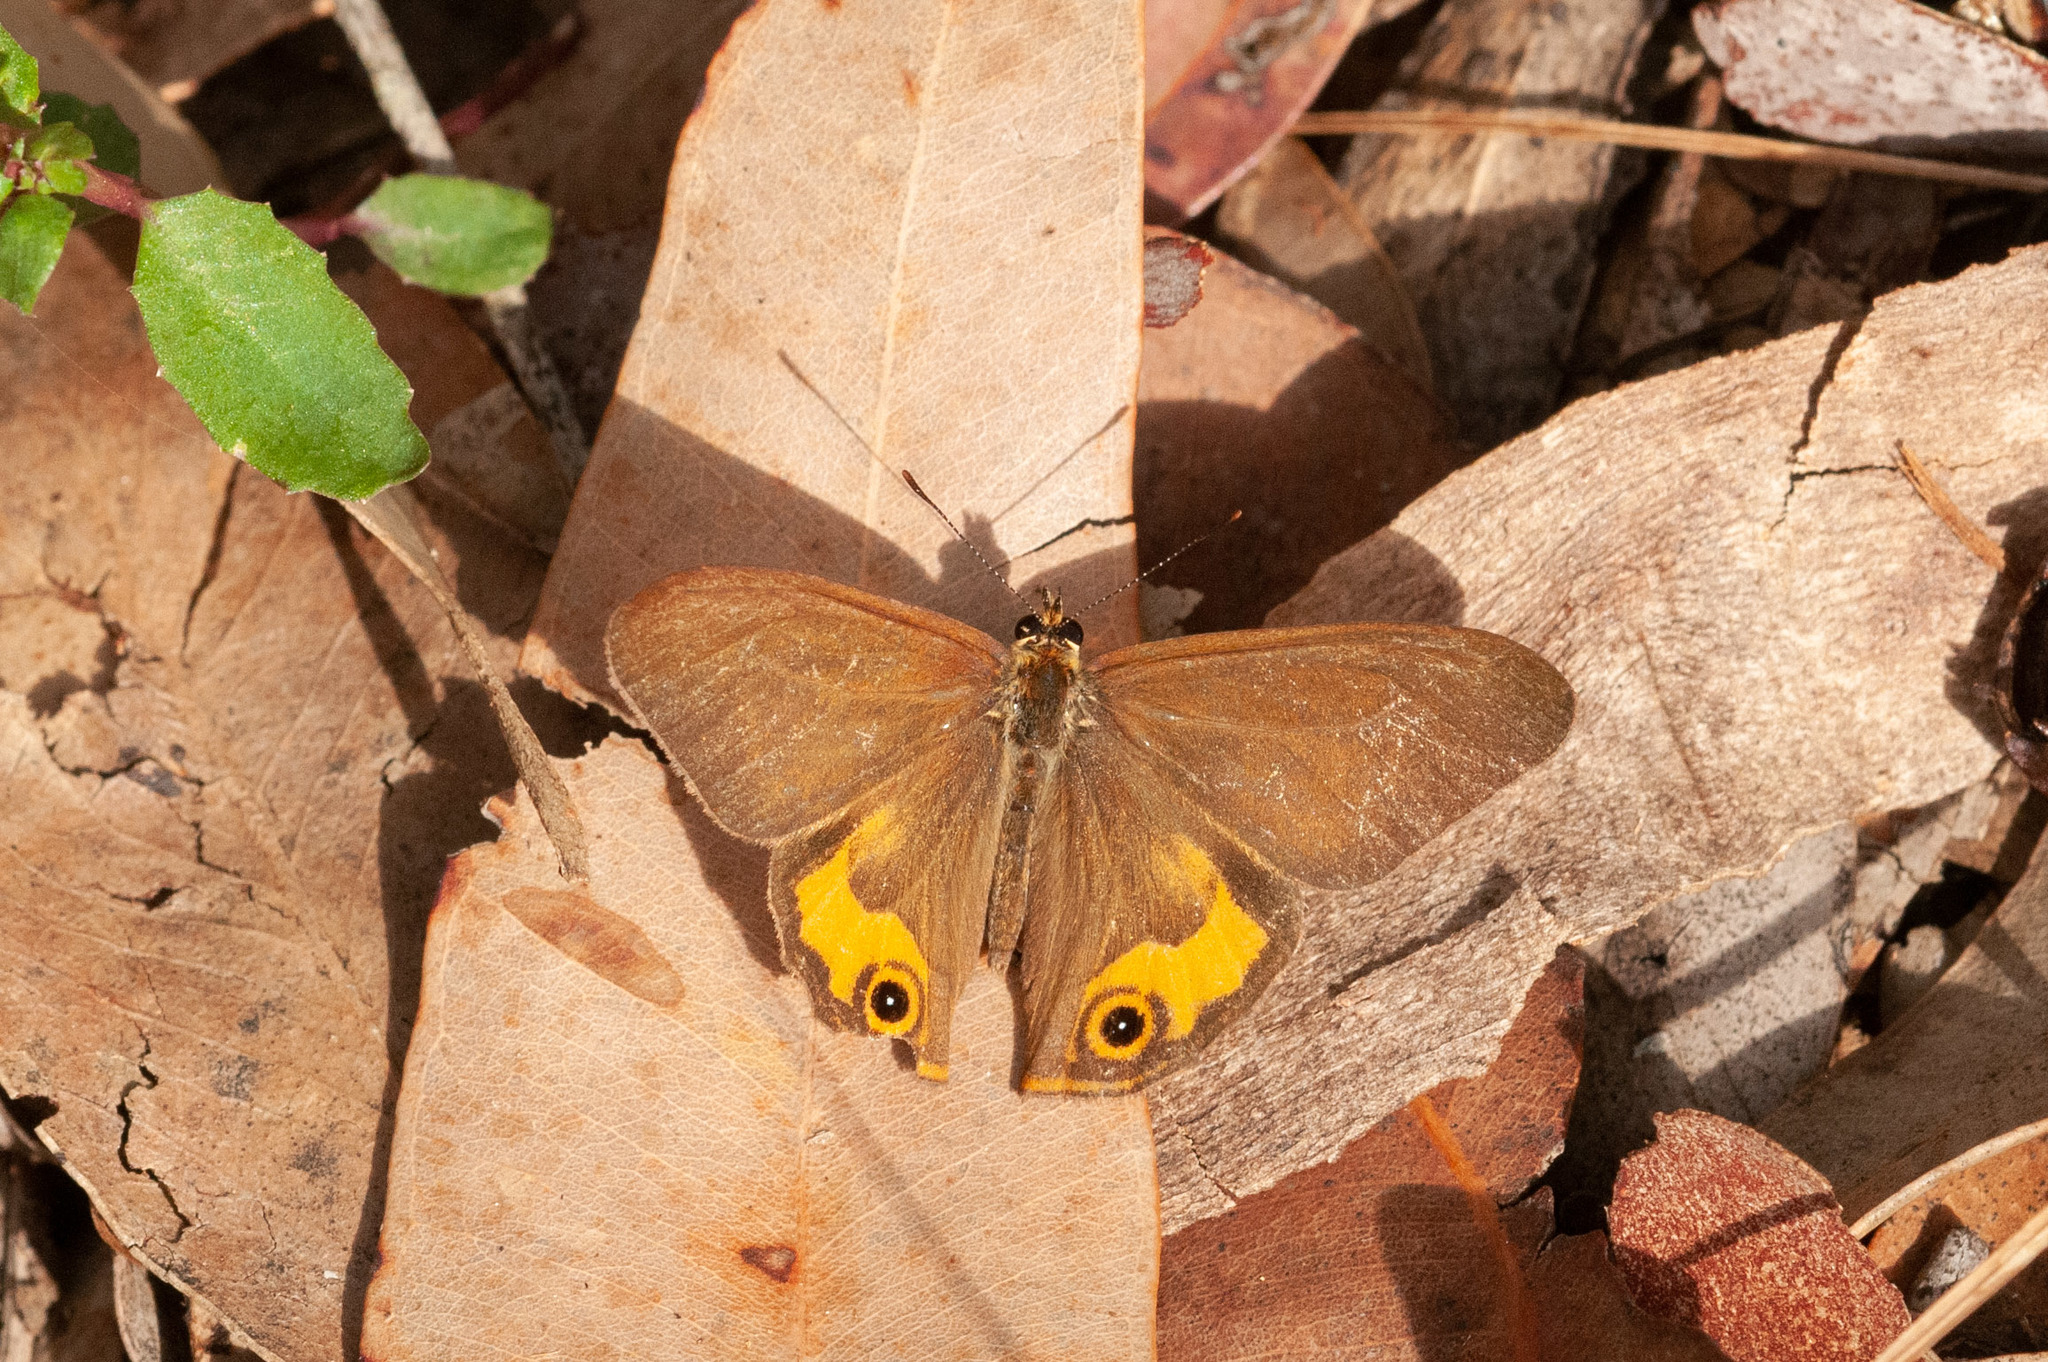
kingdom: Animalia
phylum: Arthropoda
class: Insecta
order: Lepidoptera
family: Nymphalidae
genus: Hypocysta
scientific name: Hypocysta metirius
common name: Brown ringlet
